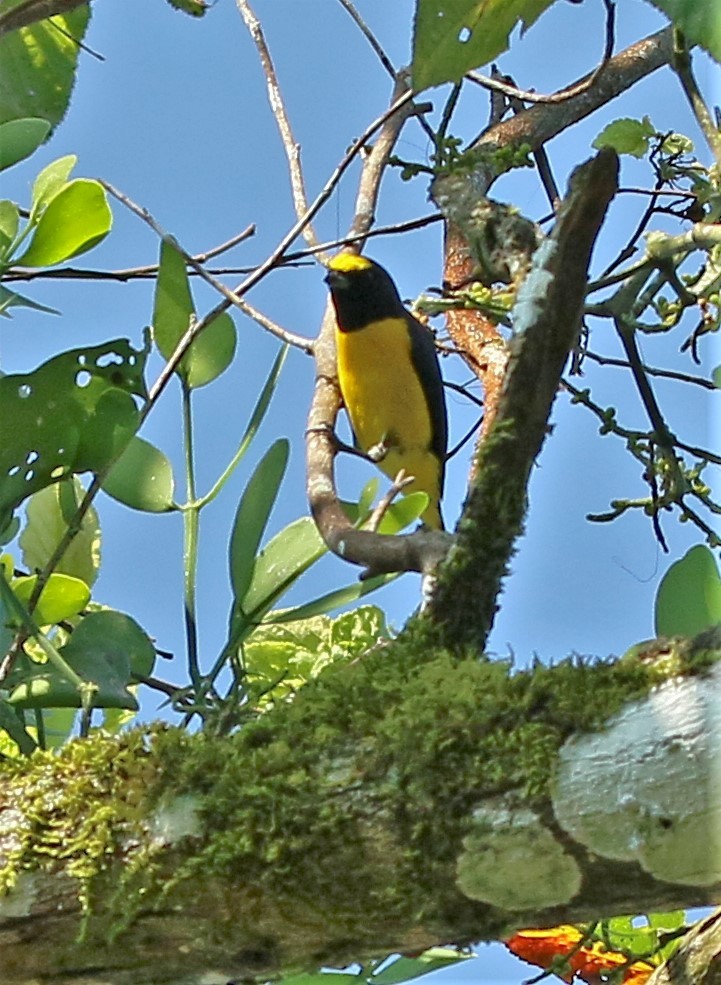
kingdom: Animalia
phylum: Chordata
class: Aves
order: Passeriformes
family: Fringillidae
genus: Euphonia
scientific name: Euphonia affinis
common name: Scrub euphonia
